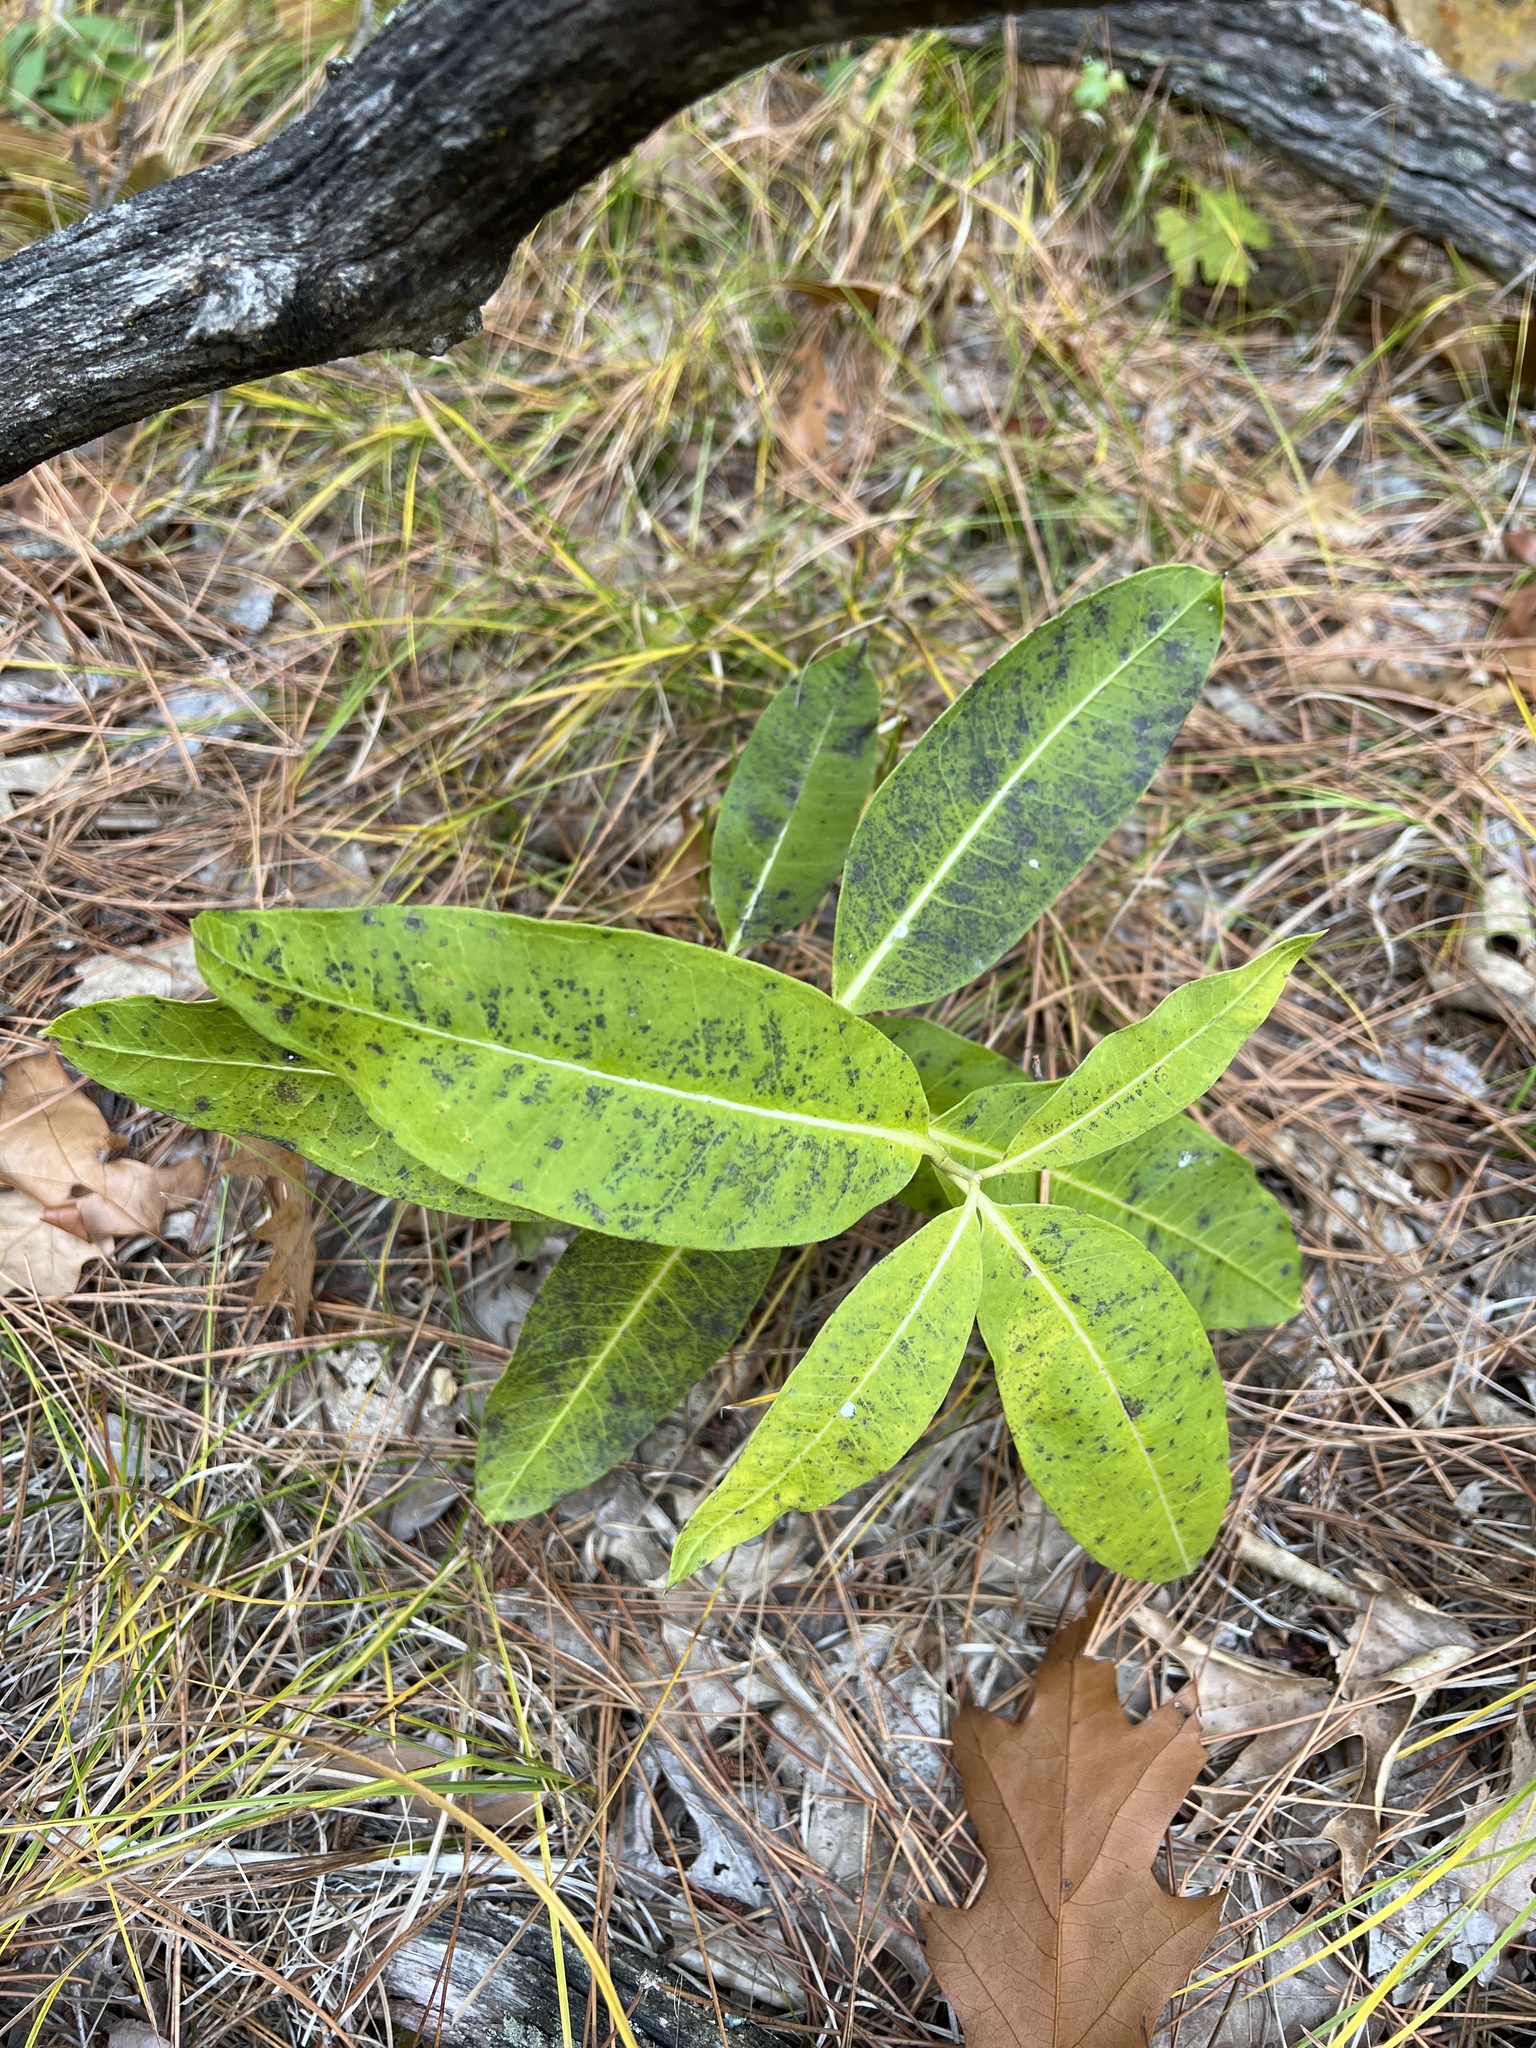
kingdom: Plantae
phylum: Tracheophyta
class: Magnoliopsida
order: Gentianales
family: Apocynaceae
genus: Asclepias
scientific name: Asclepias syriaca
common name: Common milkweed
